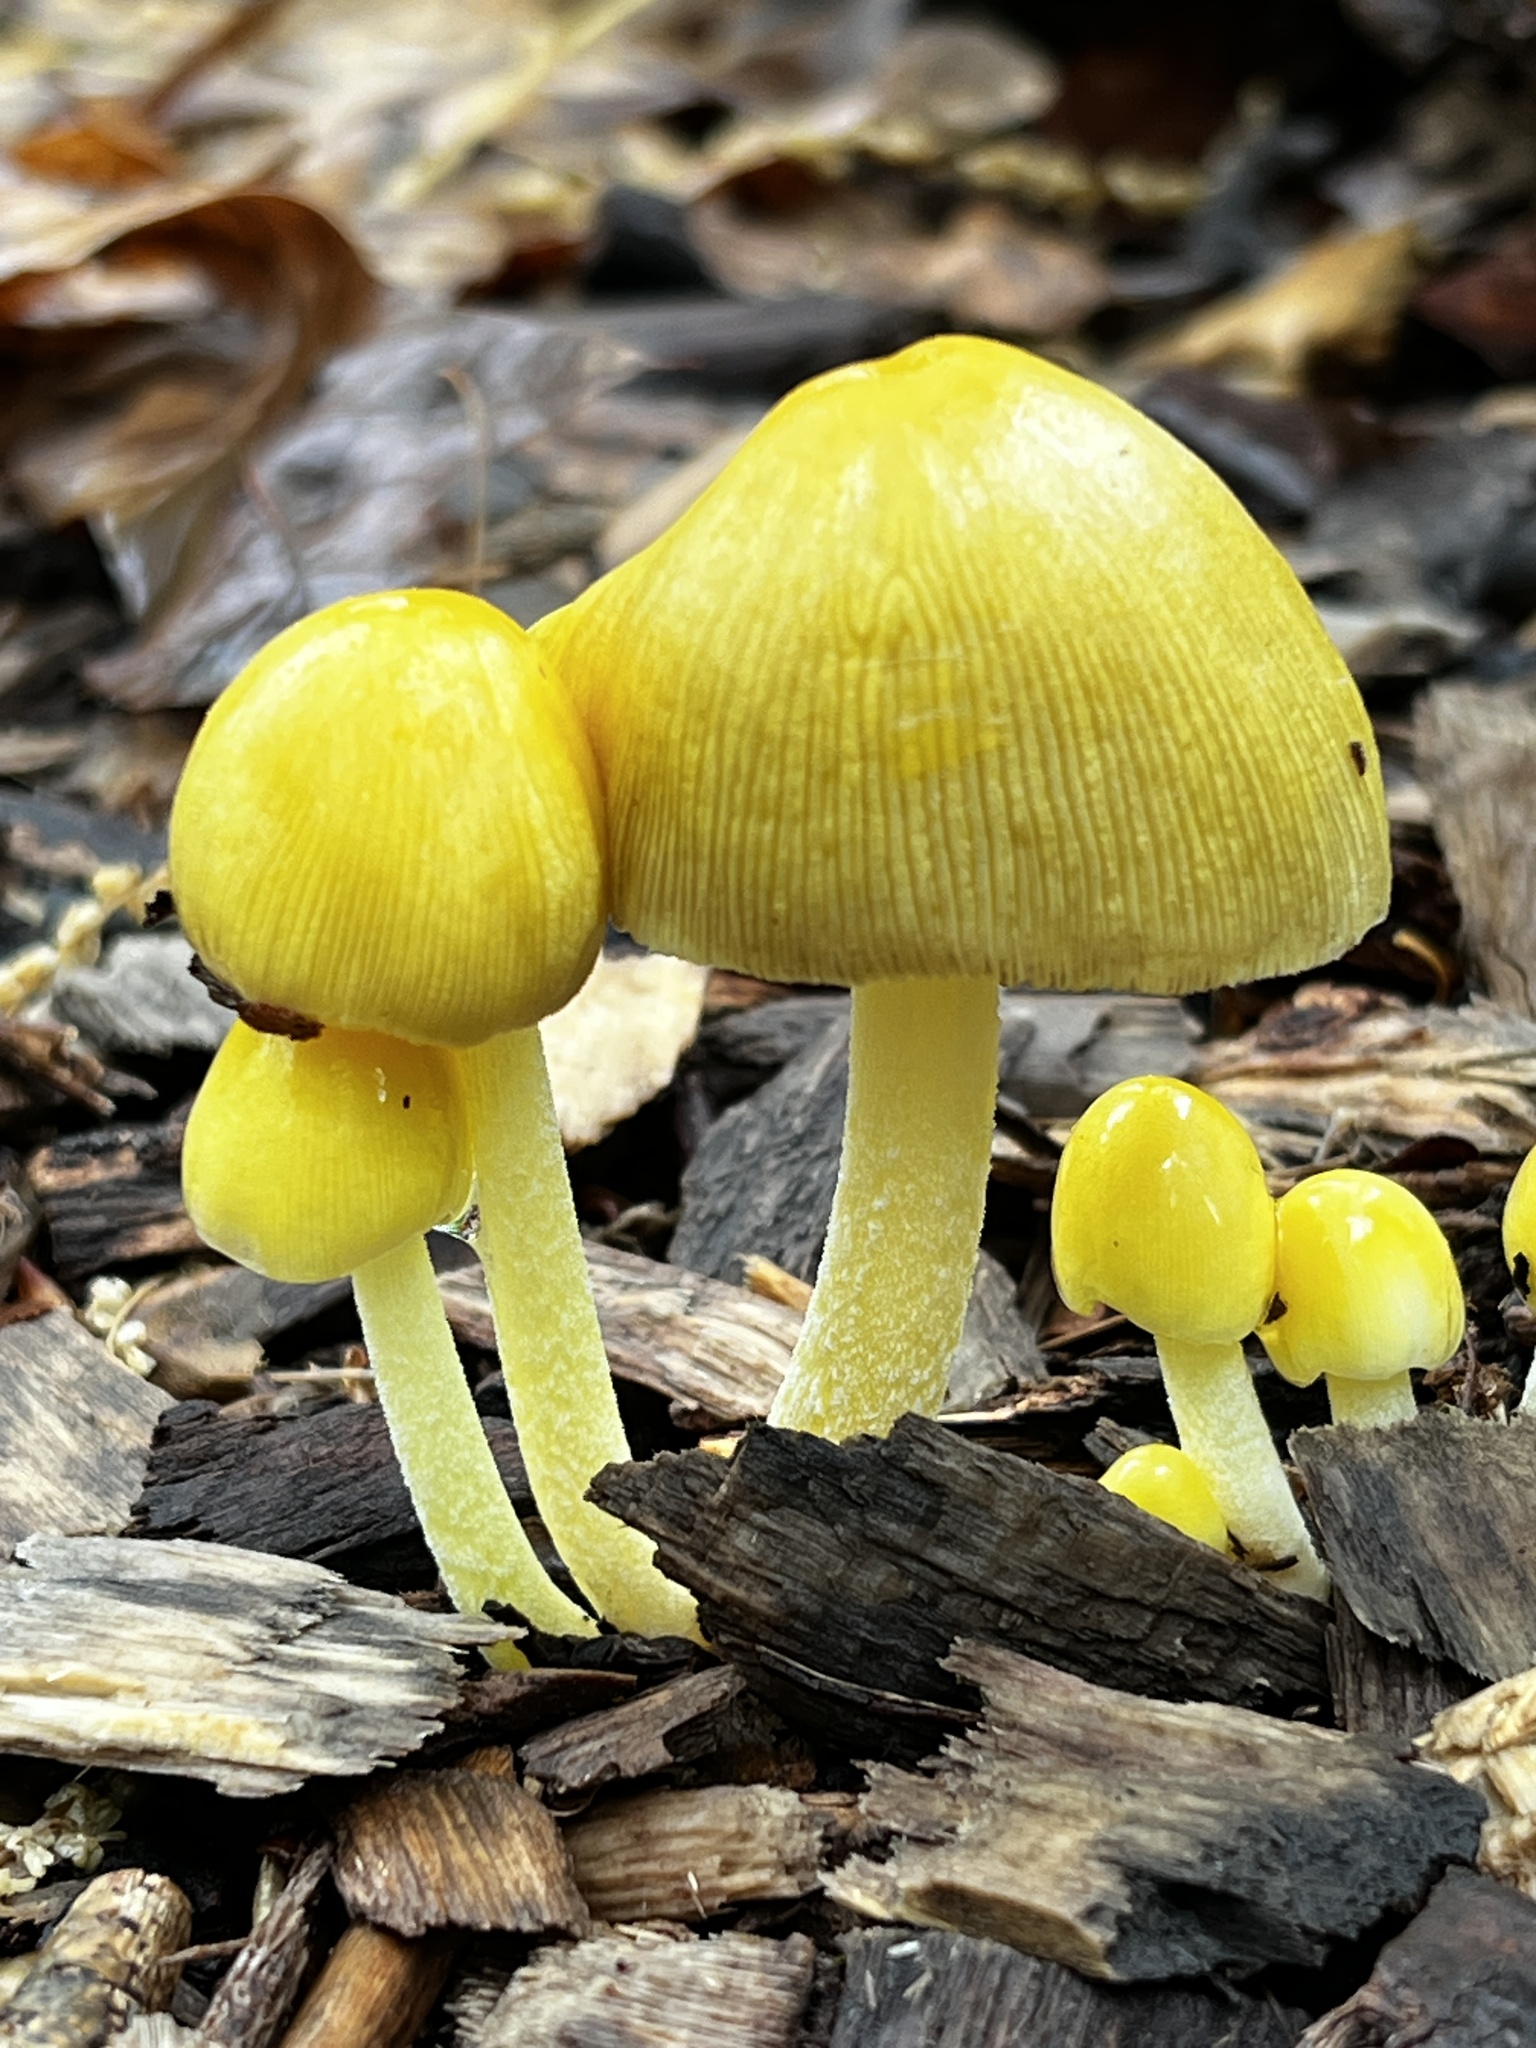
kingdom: Fungi
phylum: Basidiomycota
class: Agaricomycetes
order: Agaricales
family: Bolbitiaceae
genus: Bolbitius
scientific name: Bolbitius titubans
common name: Yellow fieldcap
